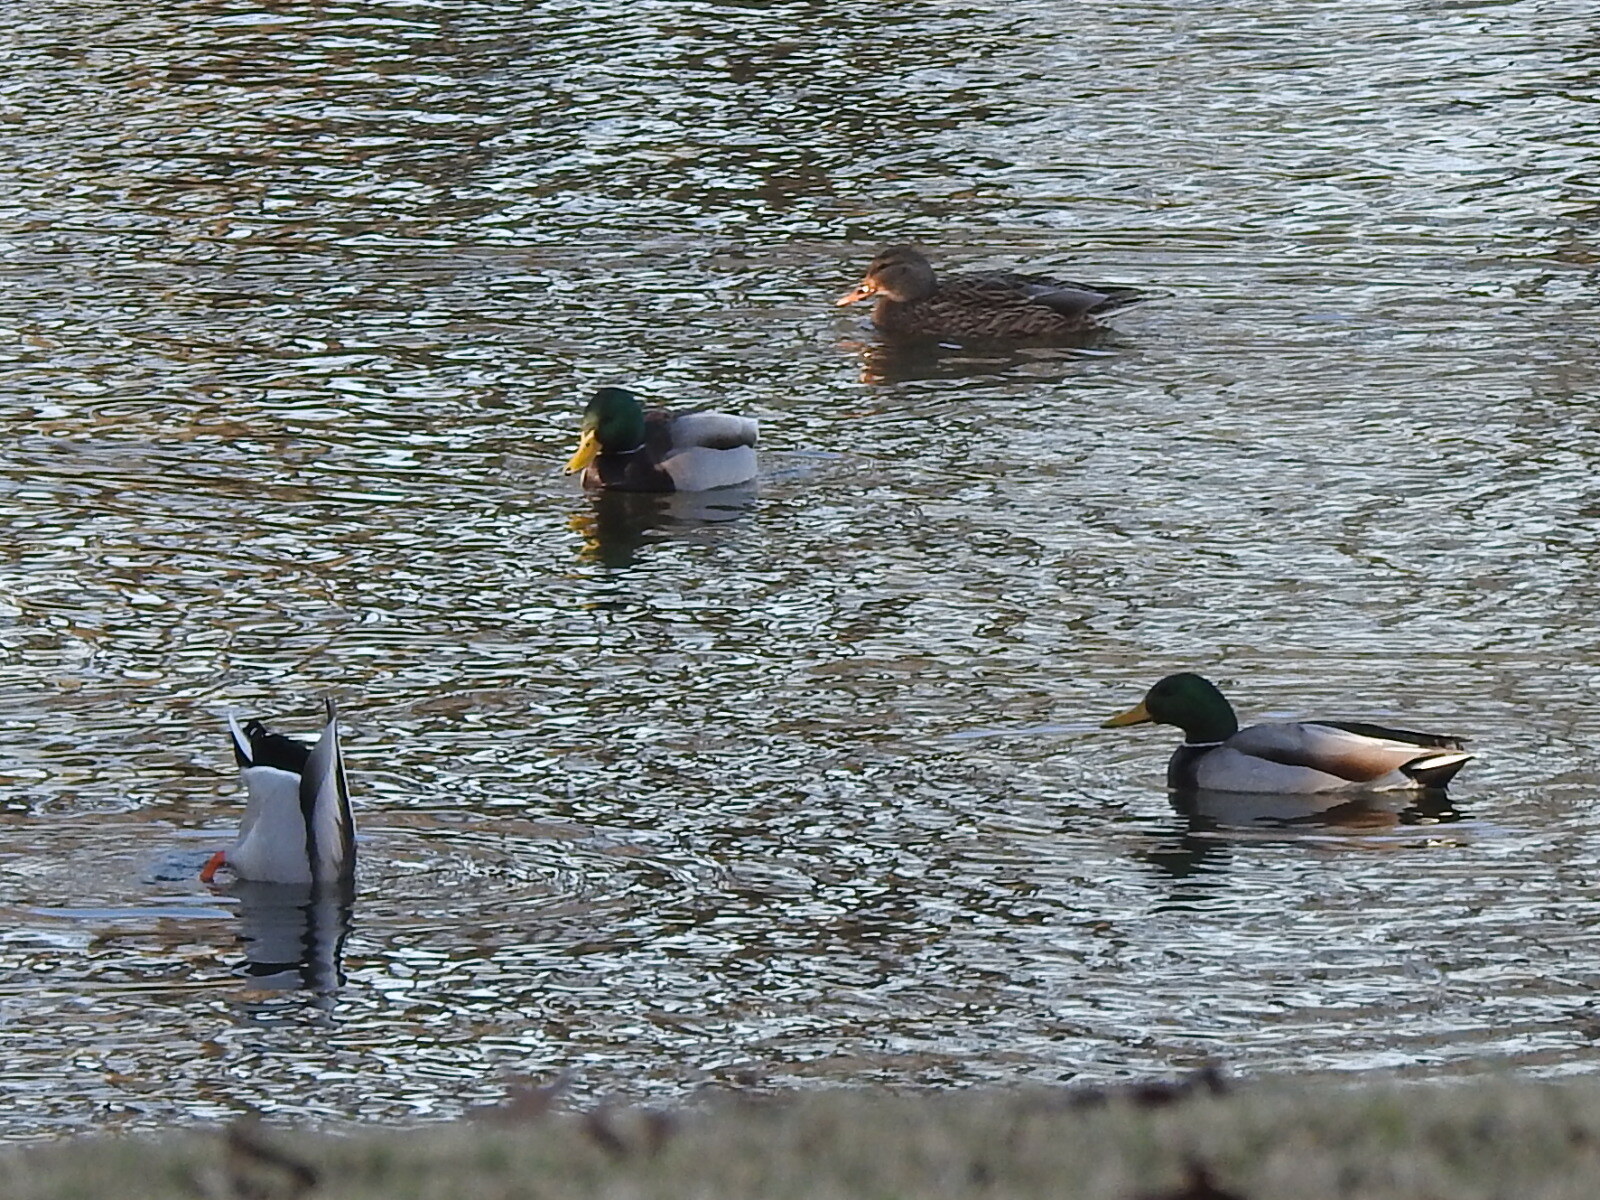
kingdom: Animalia
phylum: Chordata
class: Aves
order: Anseriformes
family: Anatidae
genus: Anas
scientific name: Anas platyrhynchos
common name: Mallard
